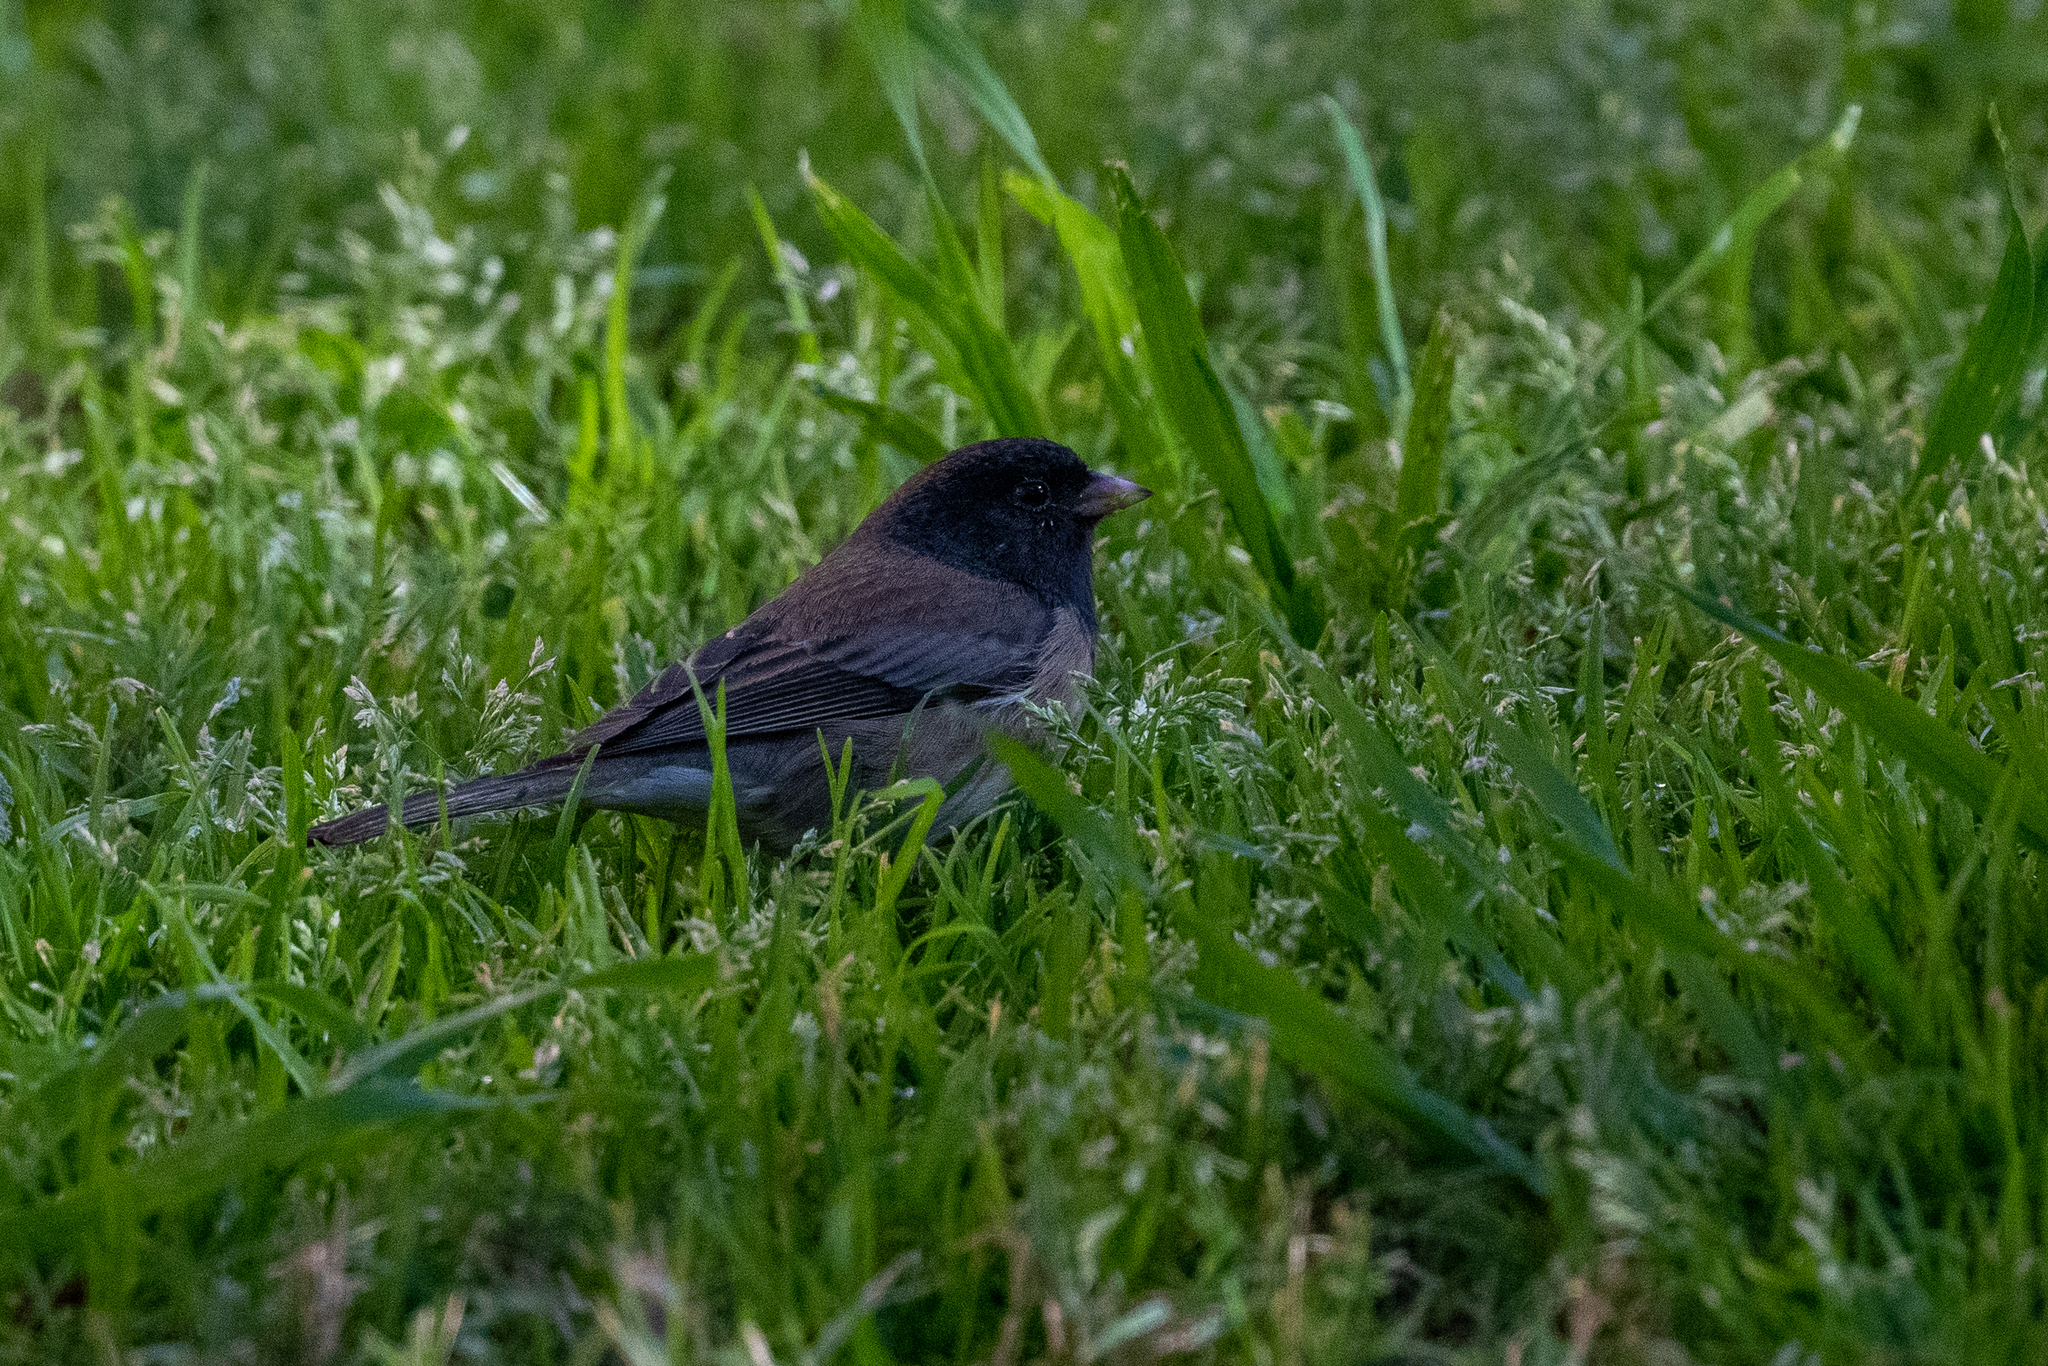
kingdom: Animalia
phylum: Chordata
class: Aves
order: Passeriformes
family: Passerellidae
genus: Junco
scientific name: Junco hyemalis
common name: Dark-eyed junco
